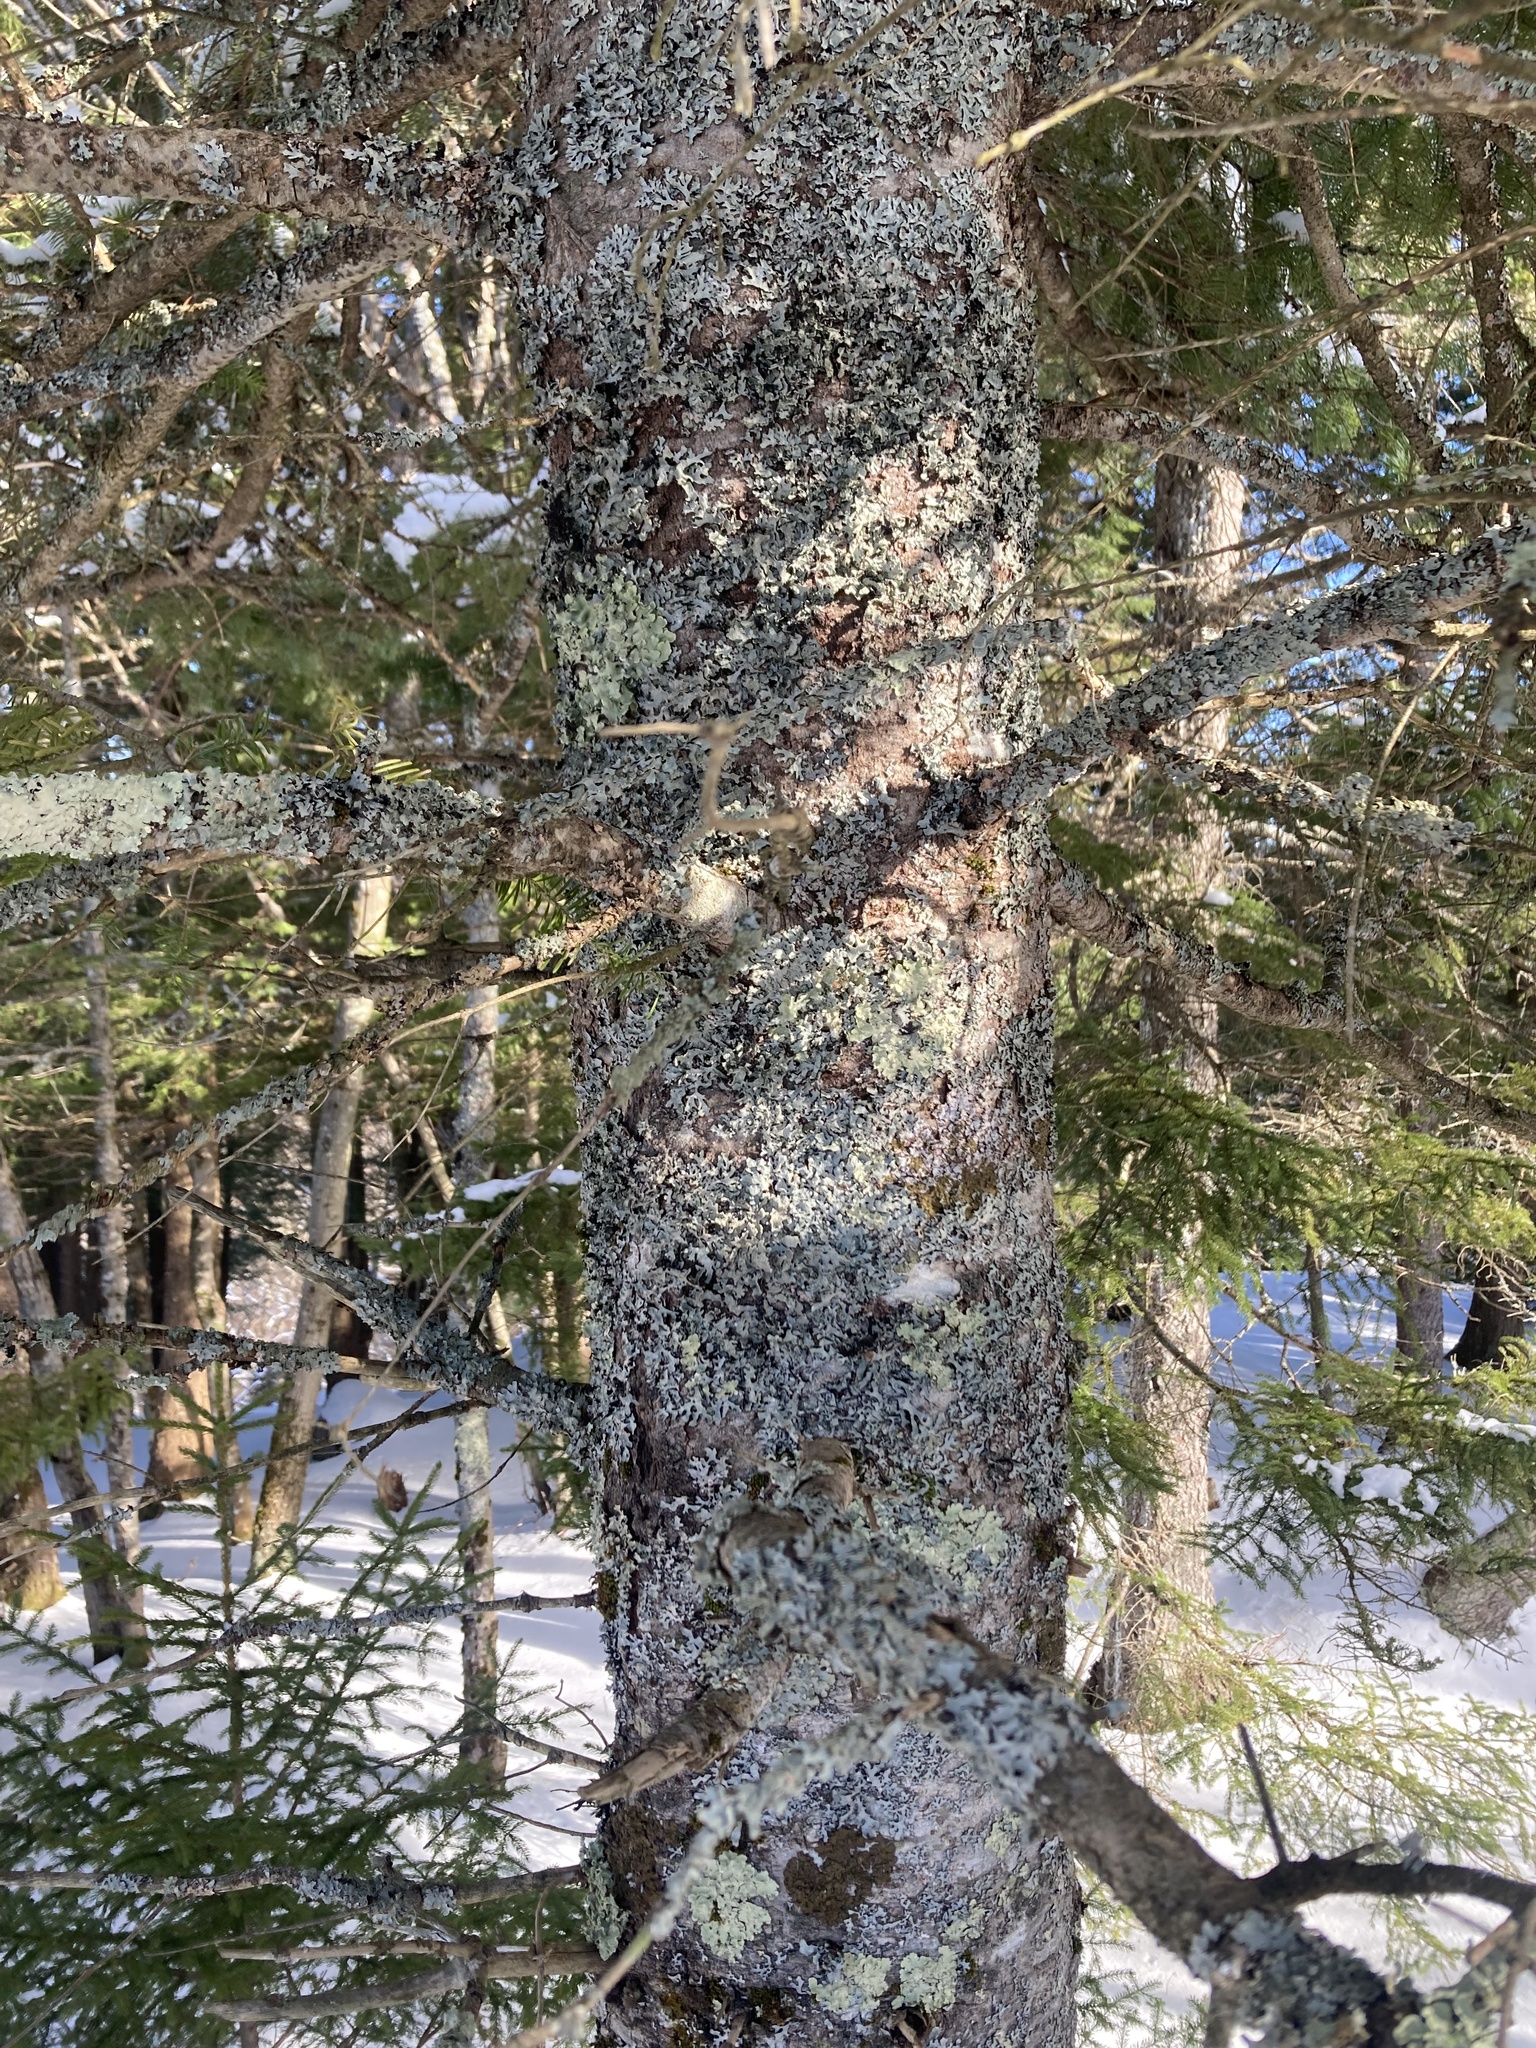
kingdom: Plantae
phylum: Tracheophyta
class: Pinopsida
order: Pinales
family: Pinaceae
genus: Abies
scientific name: Abies balsamea
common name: Balsam fir
